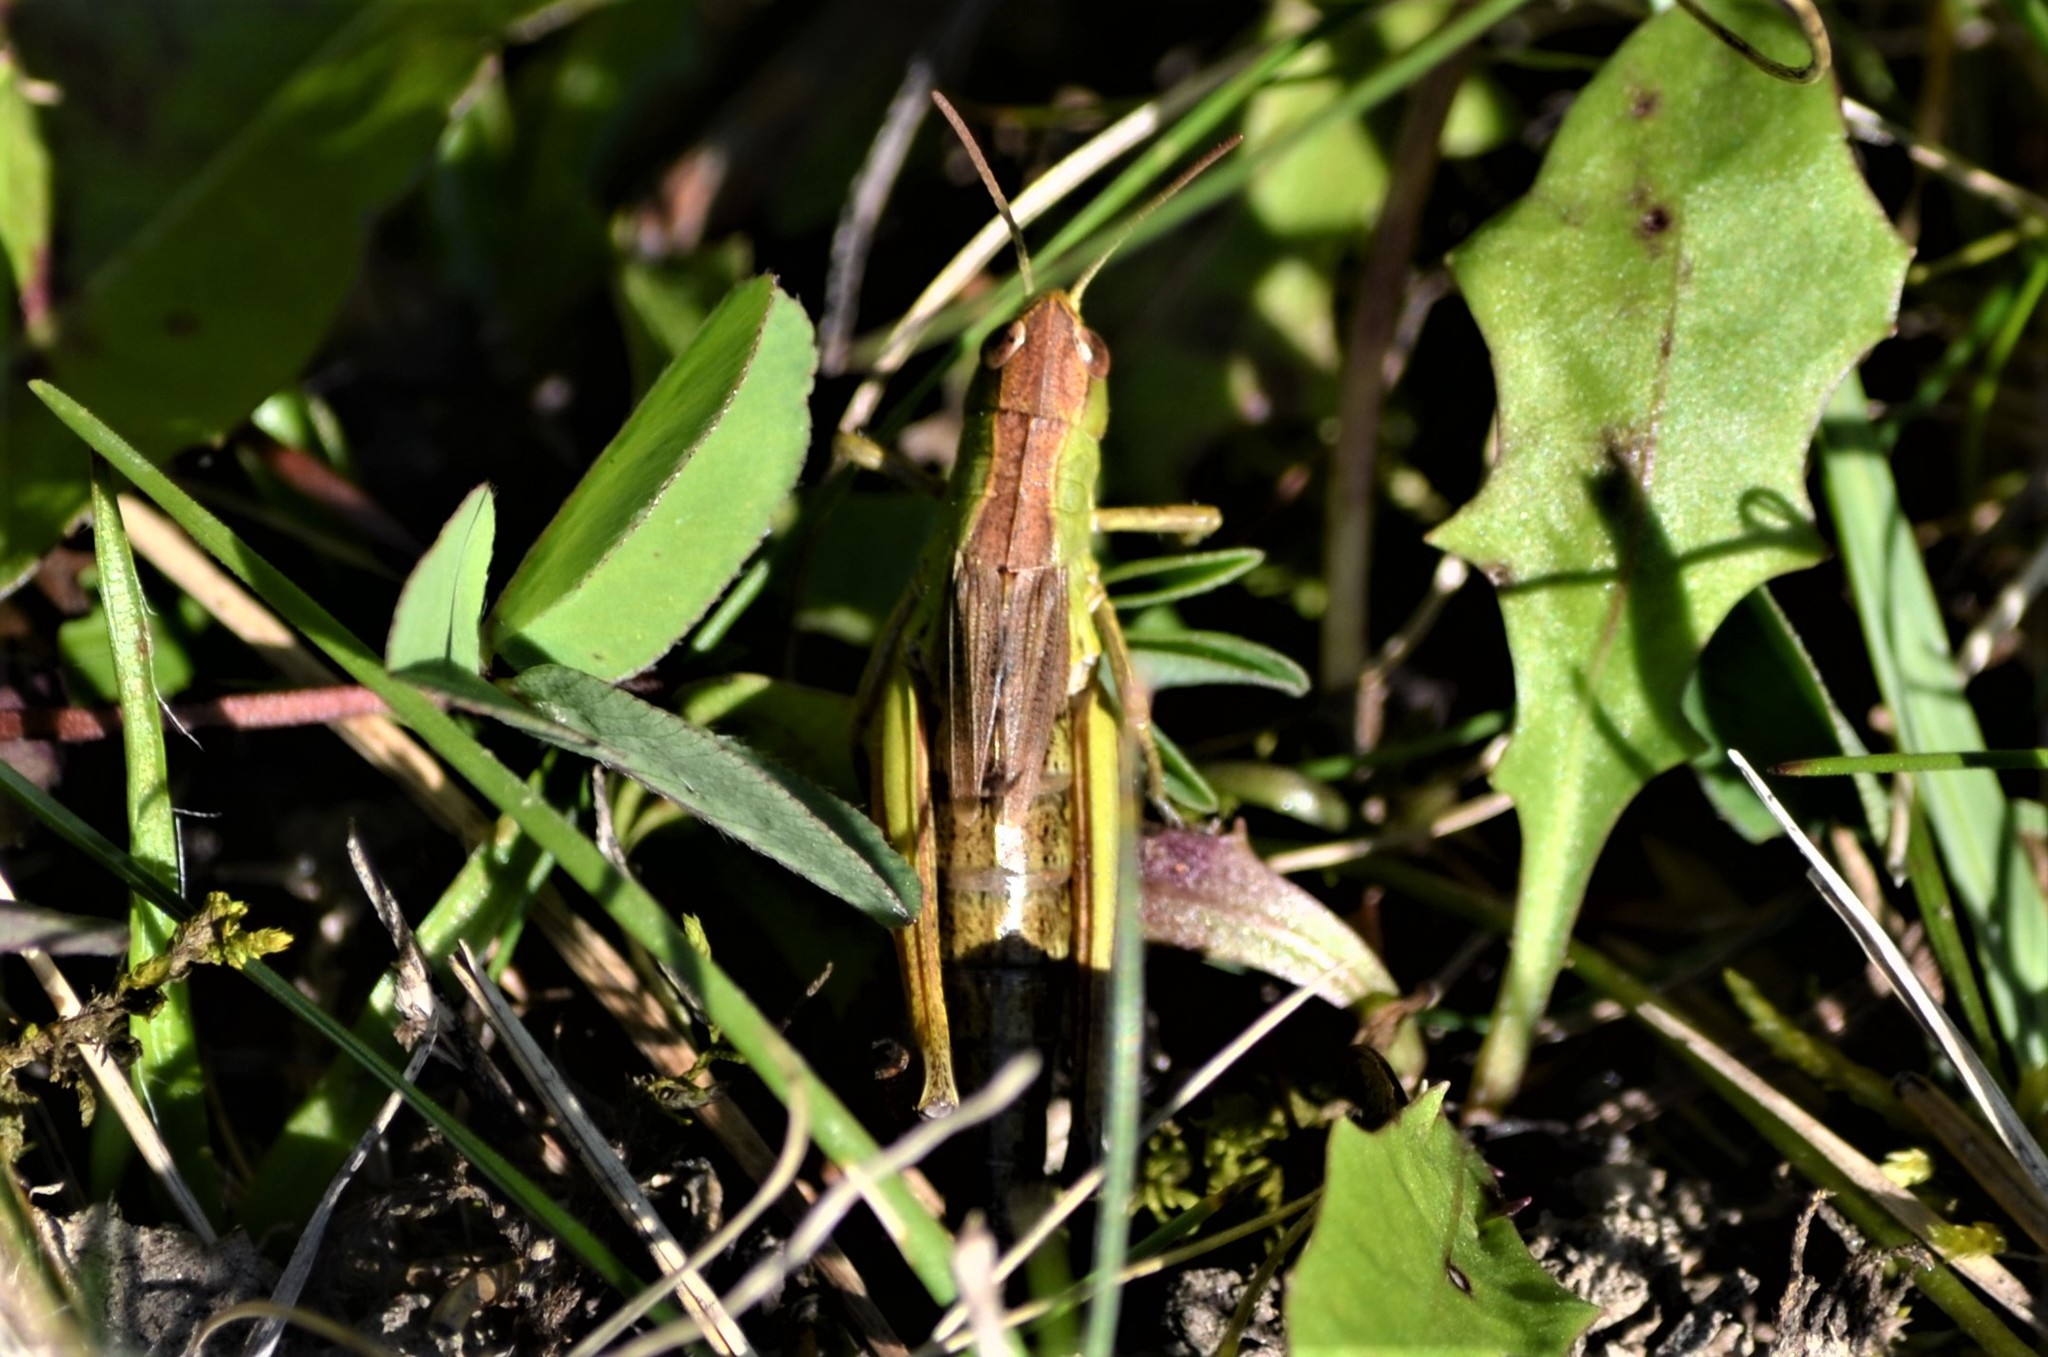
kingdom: Animalia
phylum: Arthropoda
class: Insecta
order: Orthoptera
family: Acrididae
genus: Pseudochorthippus
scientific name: Pseudochorthippus parallelus
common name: Meadow grasshopper
